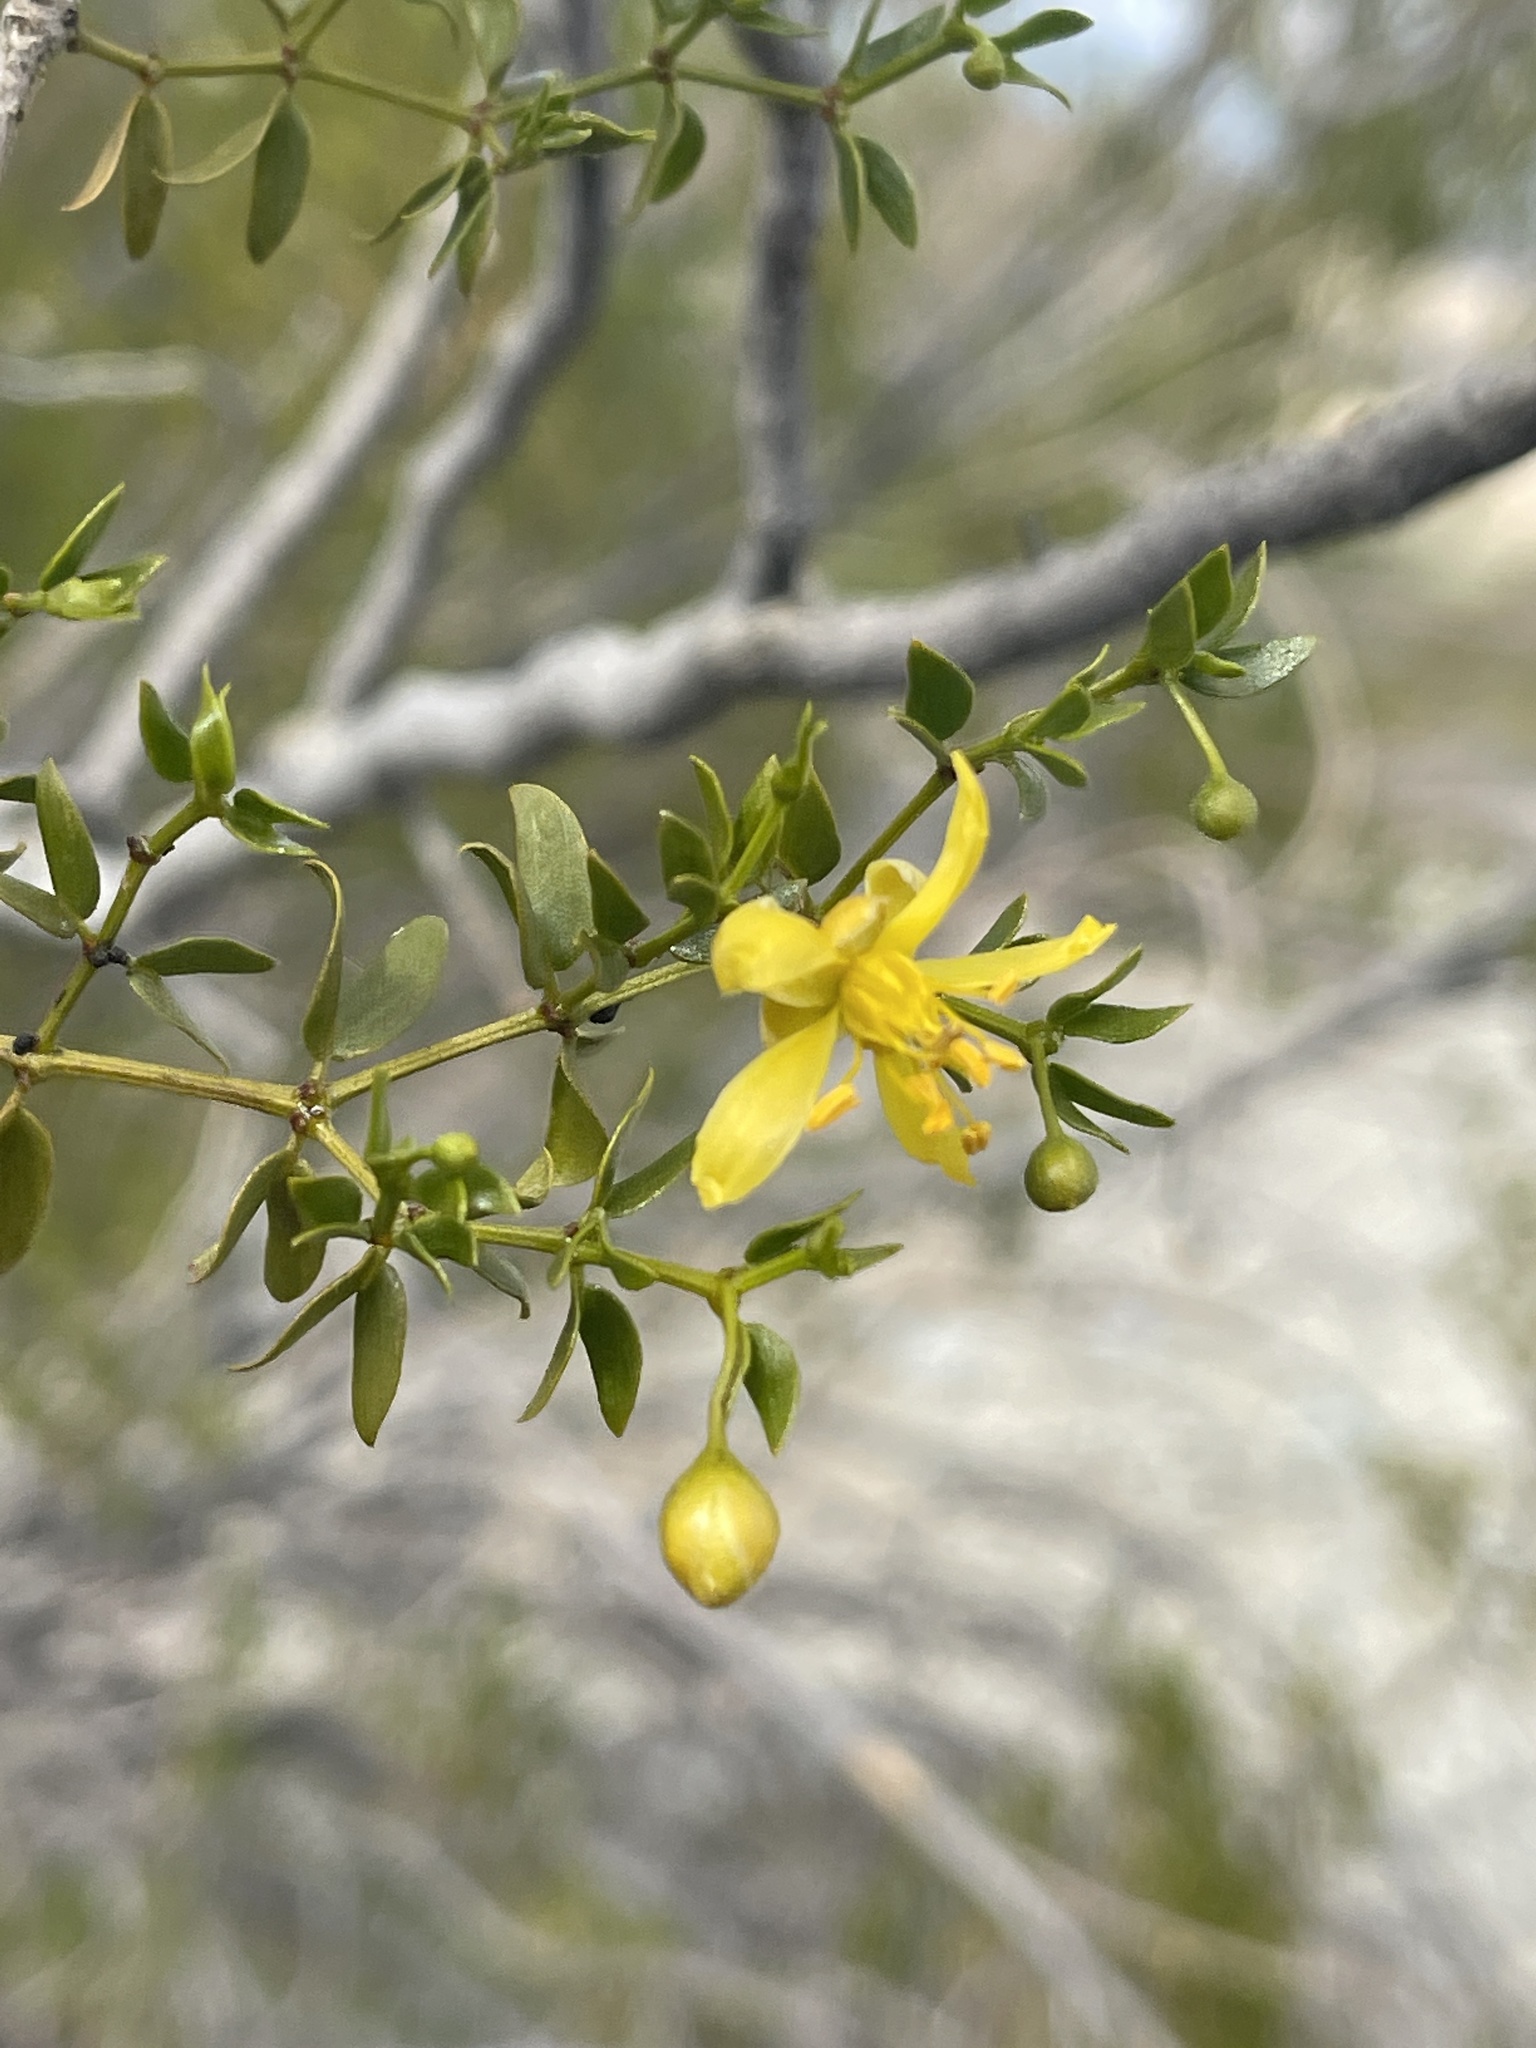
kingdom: Plantae
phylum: Tracheophyta
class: Magnoliopsida
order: Zygophyllales
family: Zygophyllaceae
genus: Larrea
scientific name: Larrea tridentata
